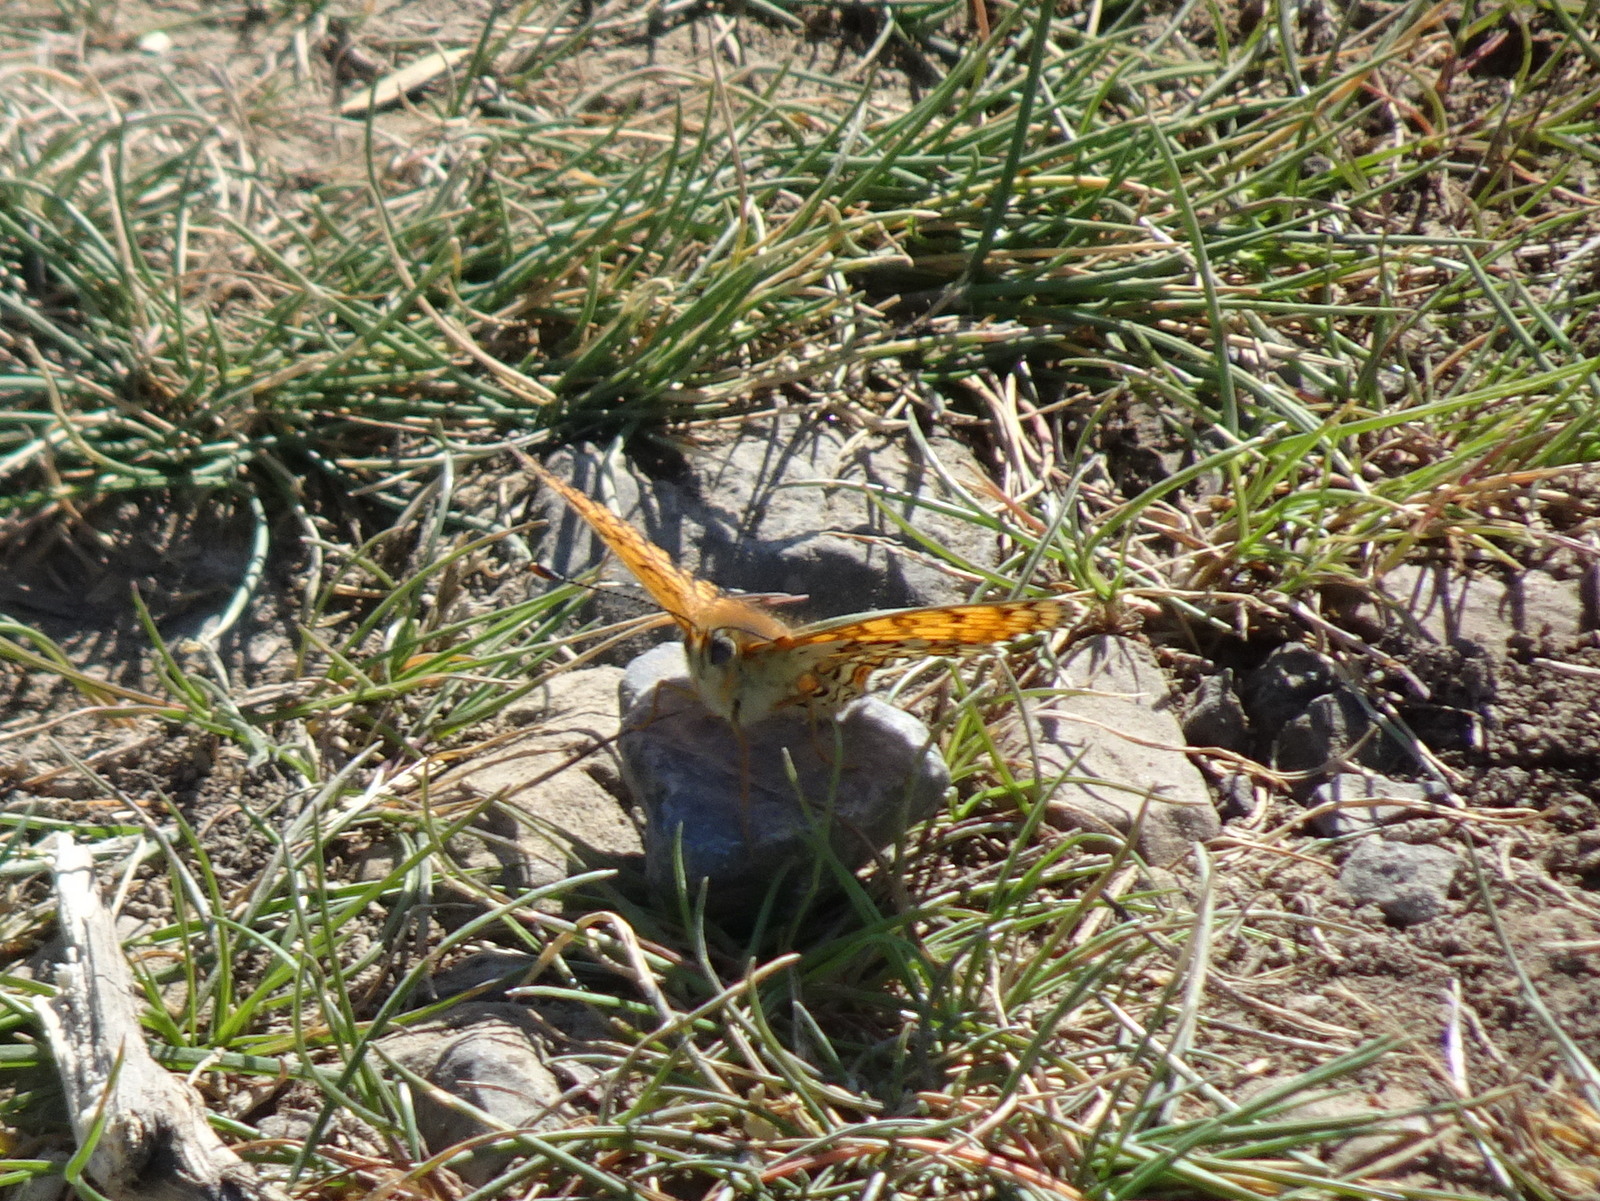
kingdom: Animalia
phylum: Arthropoda
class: Insecta
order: Lepidoptera
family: Nymphalidae
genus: Melitaea
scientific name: Melitaea cinxia
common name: Glanville fritillary
